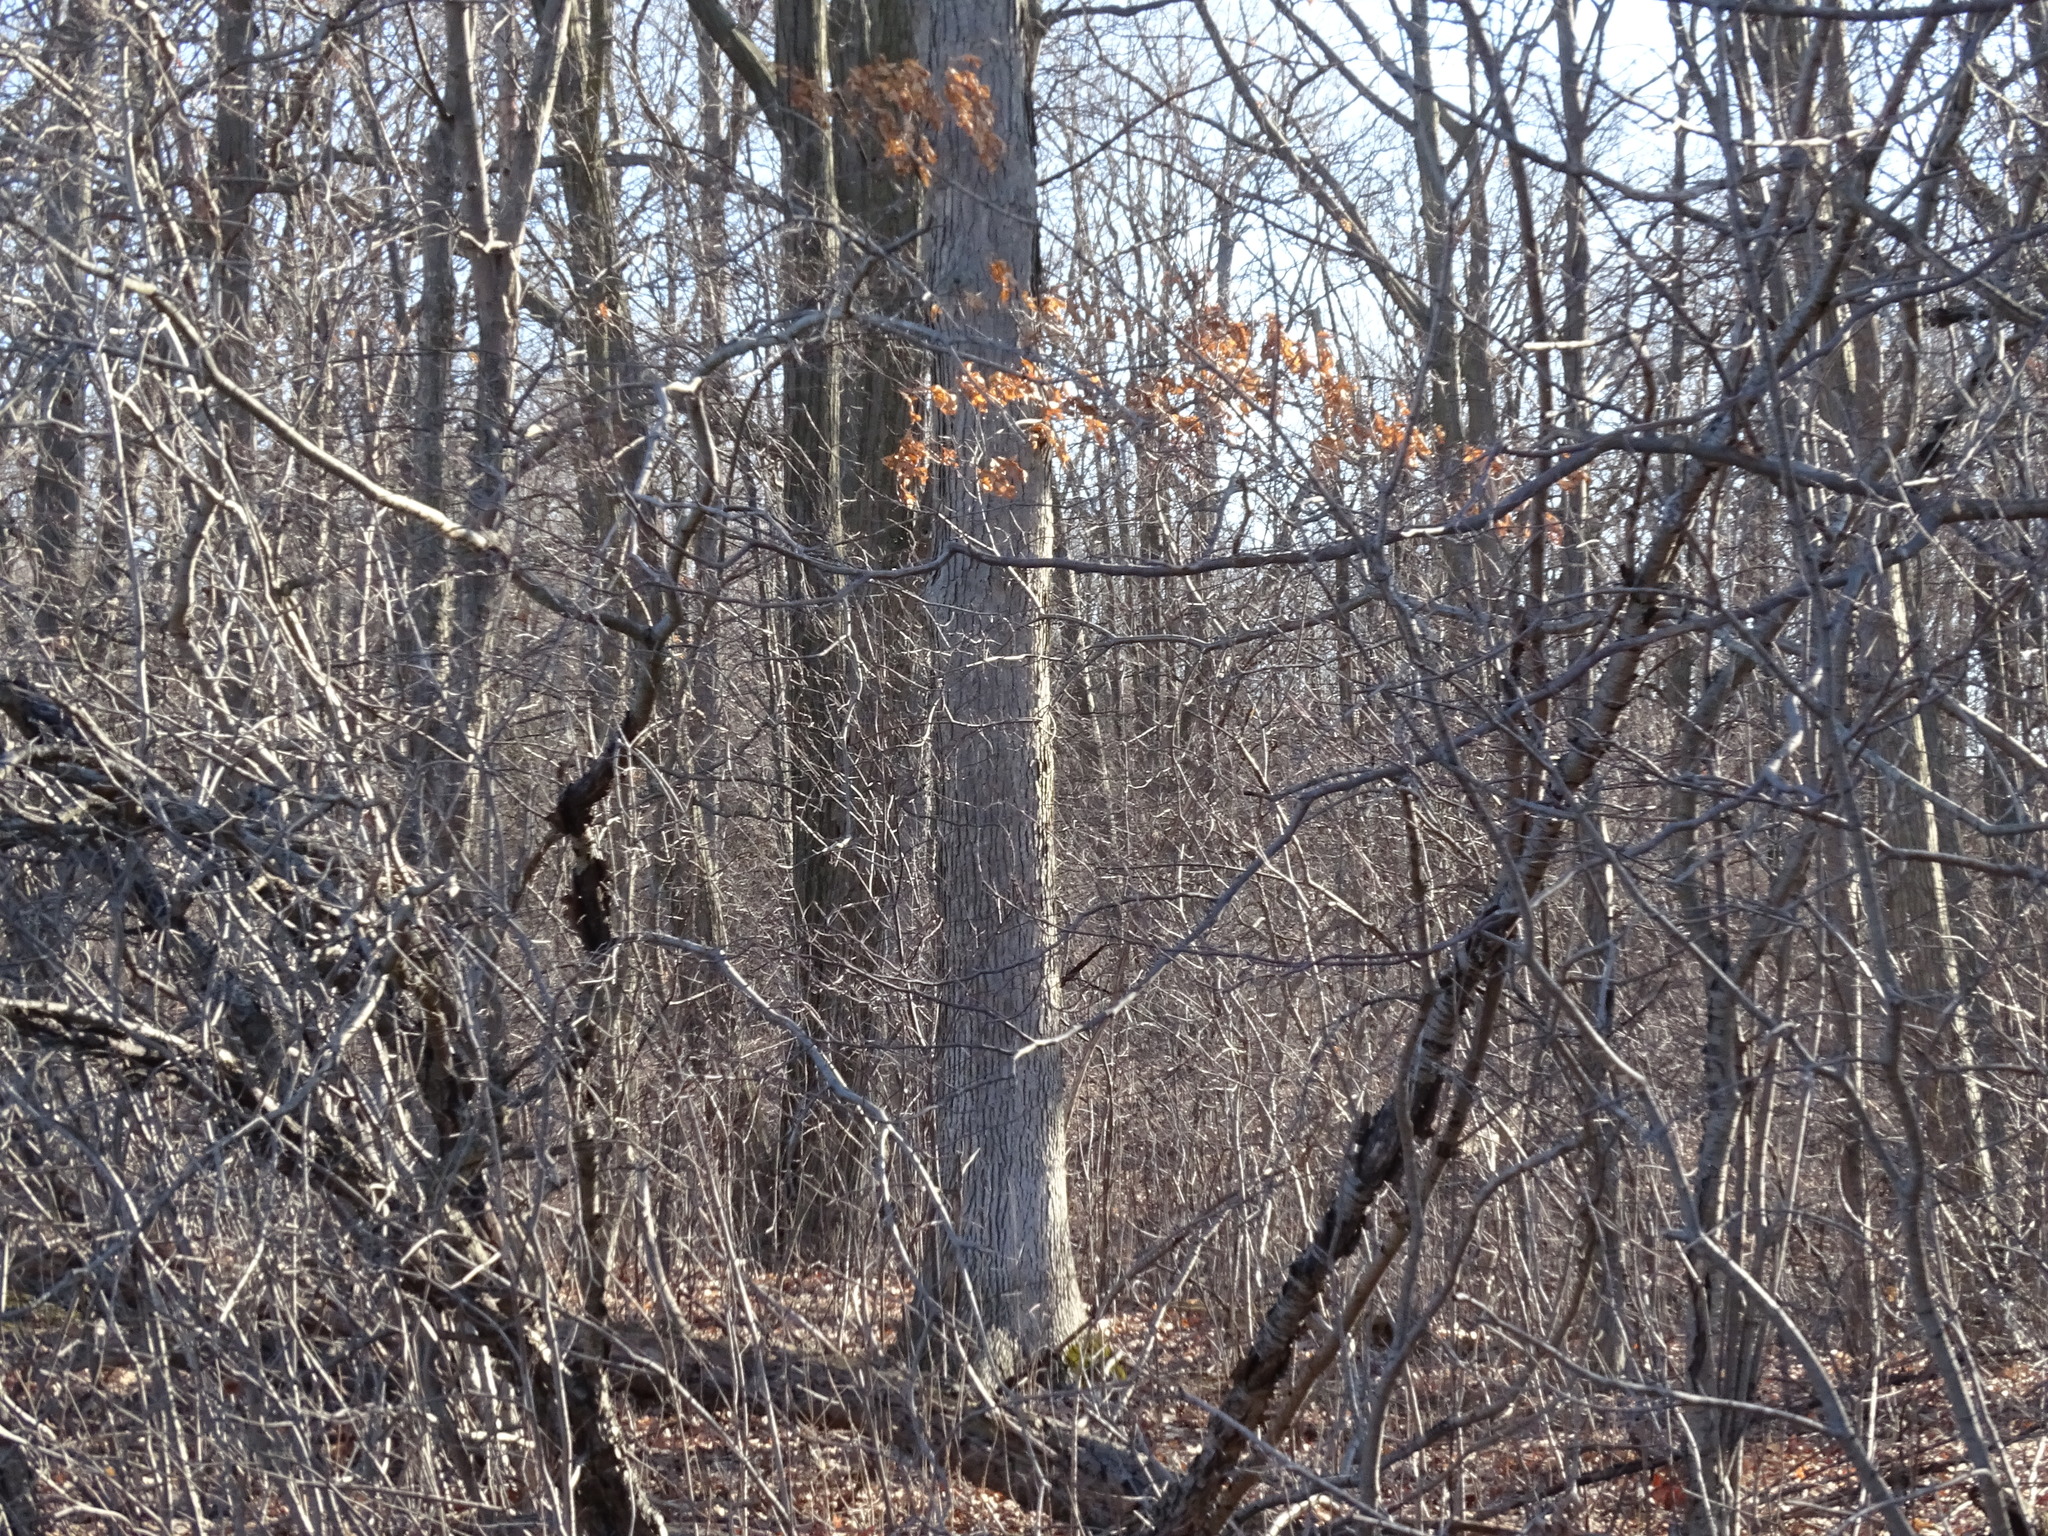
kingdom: Plantae
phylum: Tracheophyta
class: Magnoliopsida
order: Fagales
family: Fagaceae
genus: Quercus
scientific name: Quercus alba
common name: White oak
